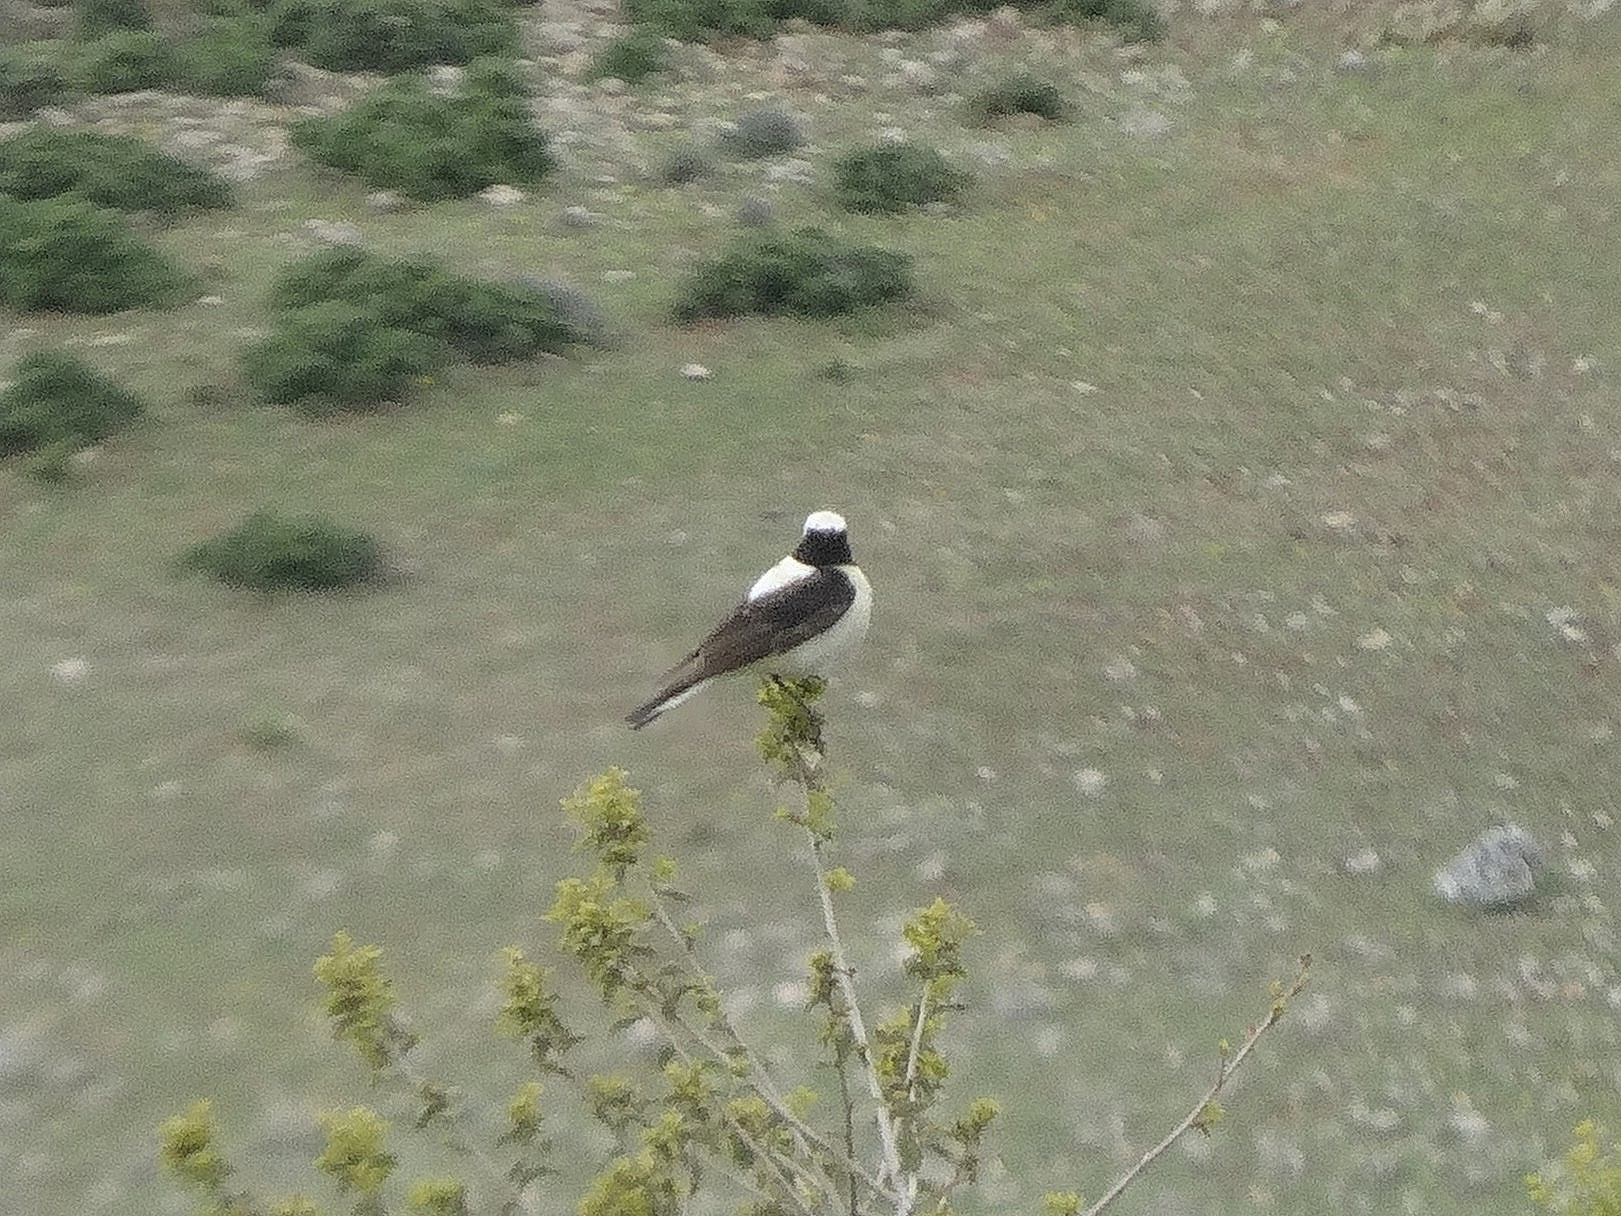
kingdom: Animalia
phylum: Chordata
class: Aves
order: Passeriformes
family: Muscicapidae
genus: Oenanthe
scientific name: Oenanthe hispanica
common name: Black-eared wheatear
